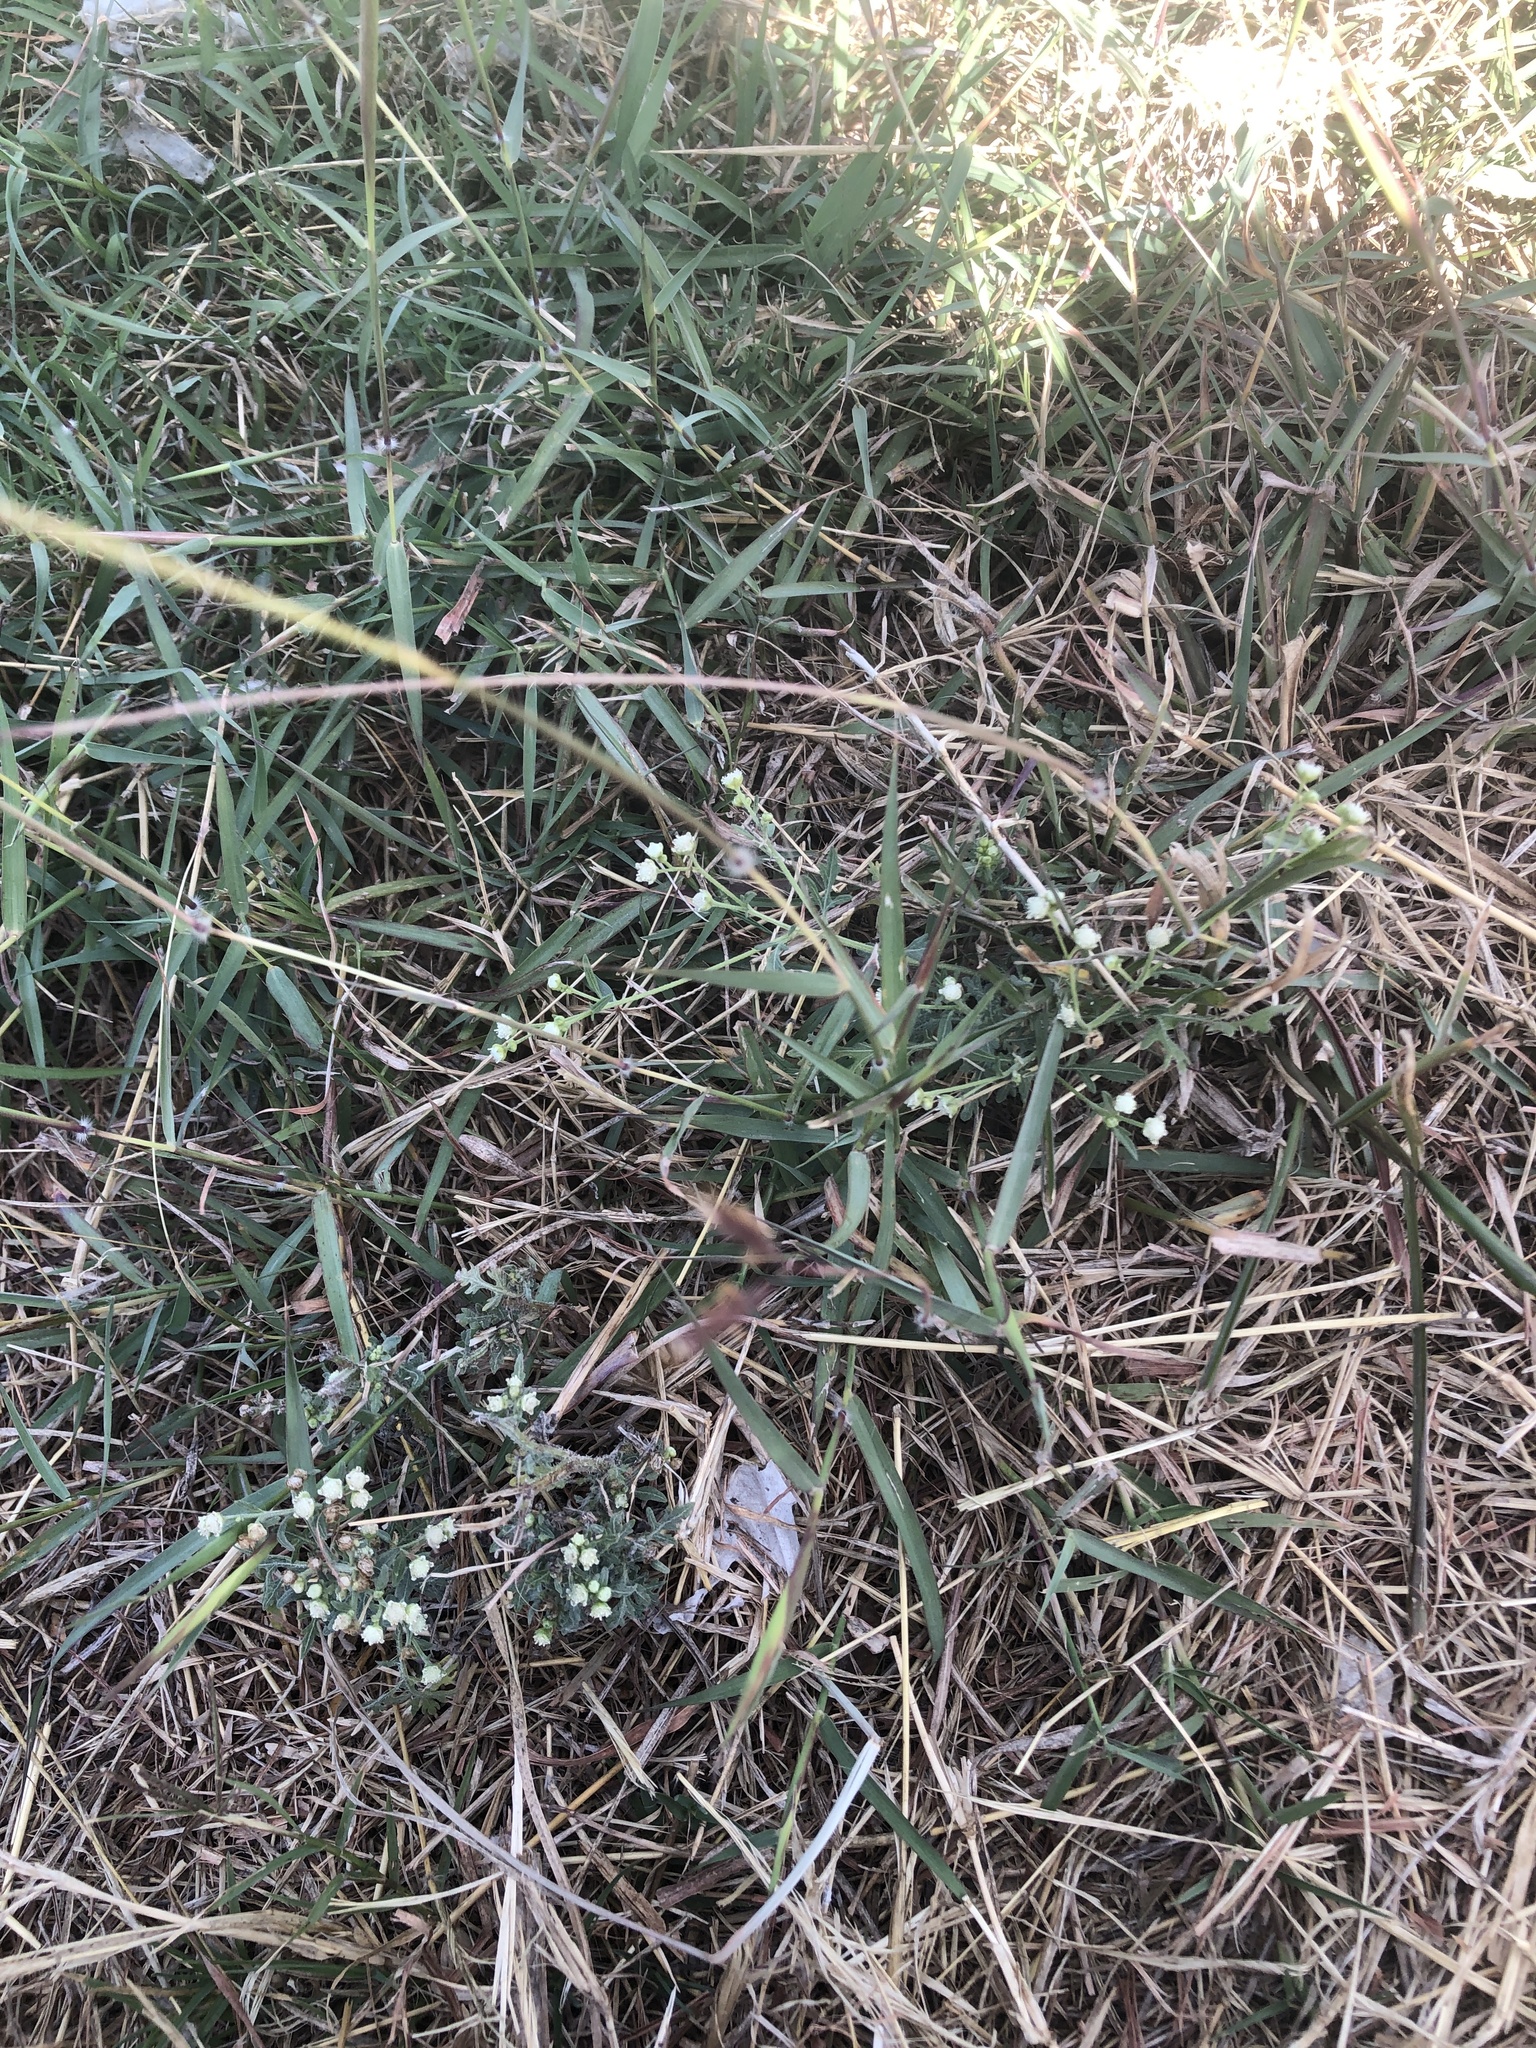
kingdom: Plantae
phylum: Tracheophyta
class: Magnoliopsida
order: Asterales
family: Asteraceae
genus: Parthenium
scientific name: Parthenium hysterophorus
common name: Santa maria feverfew
